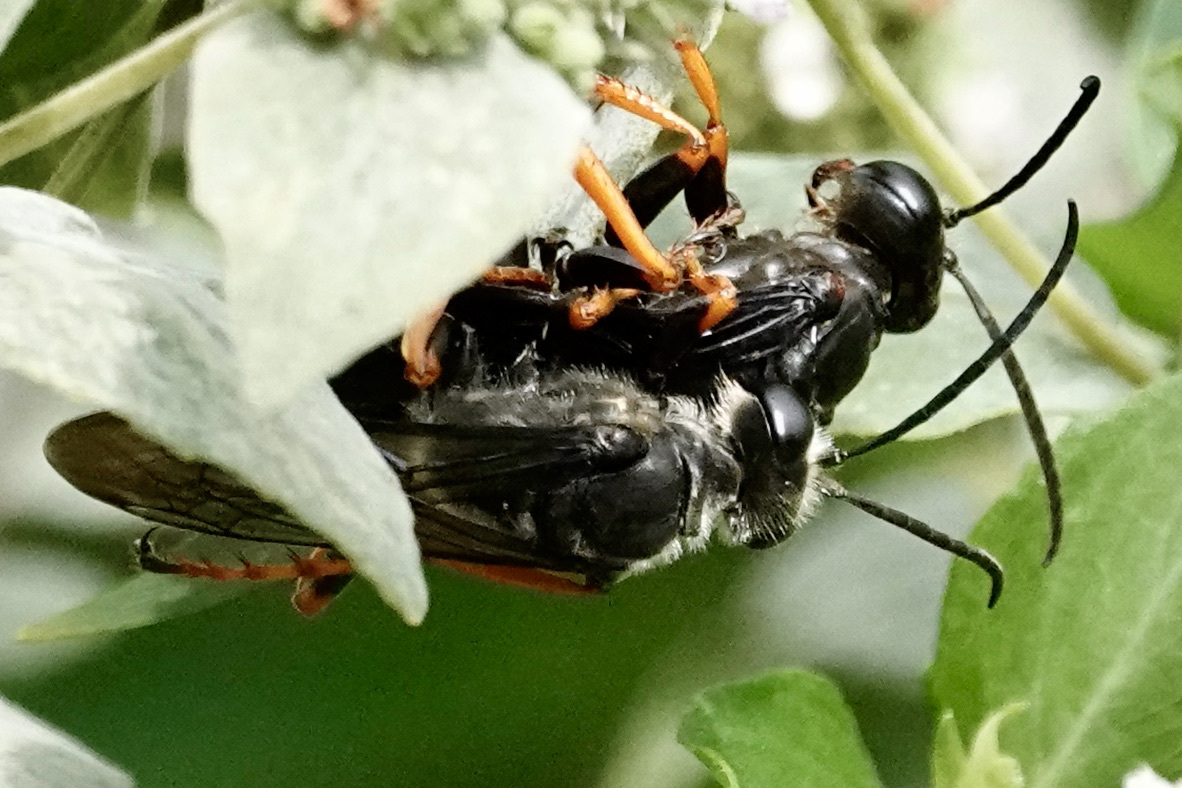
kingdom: Animalia
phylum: Arthropoda
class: Insecta
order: Hymenoptera
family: Sphecidae
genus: Sphex
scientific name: Sphex nudus
